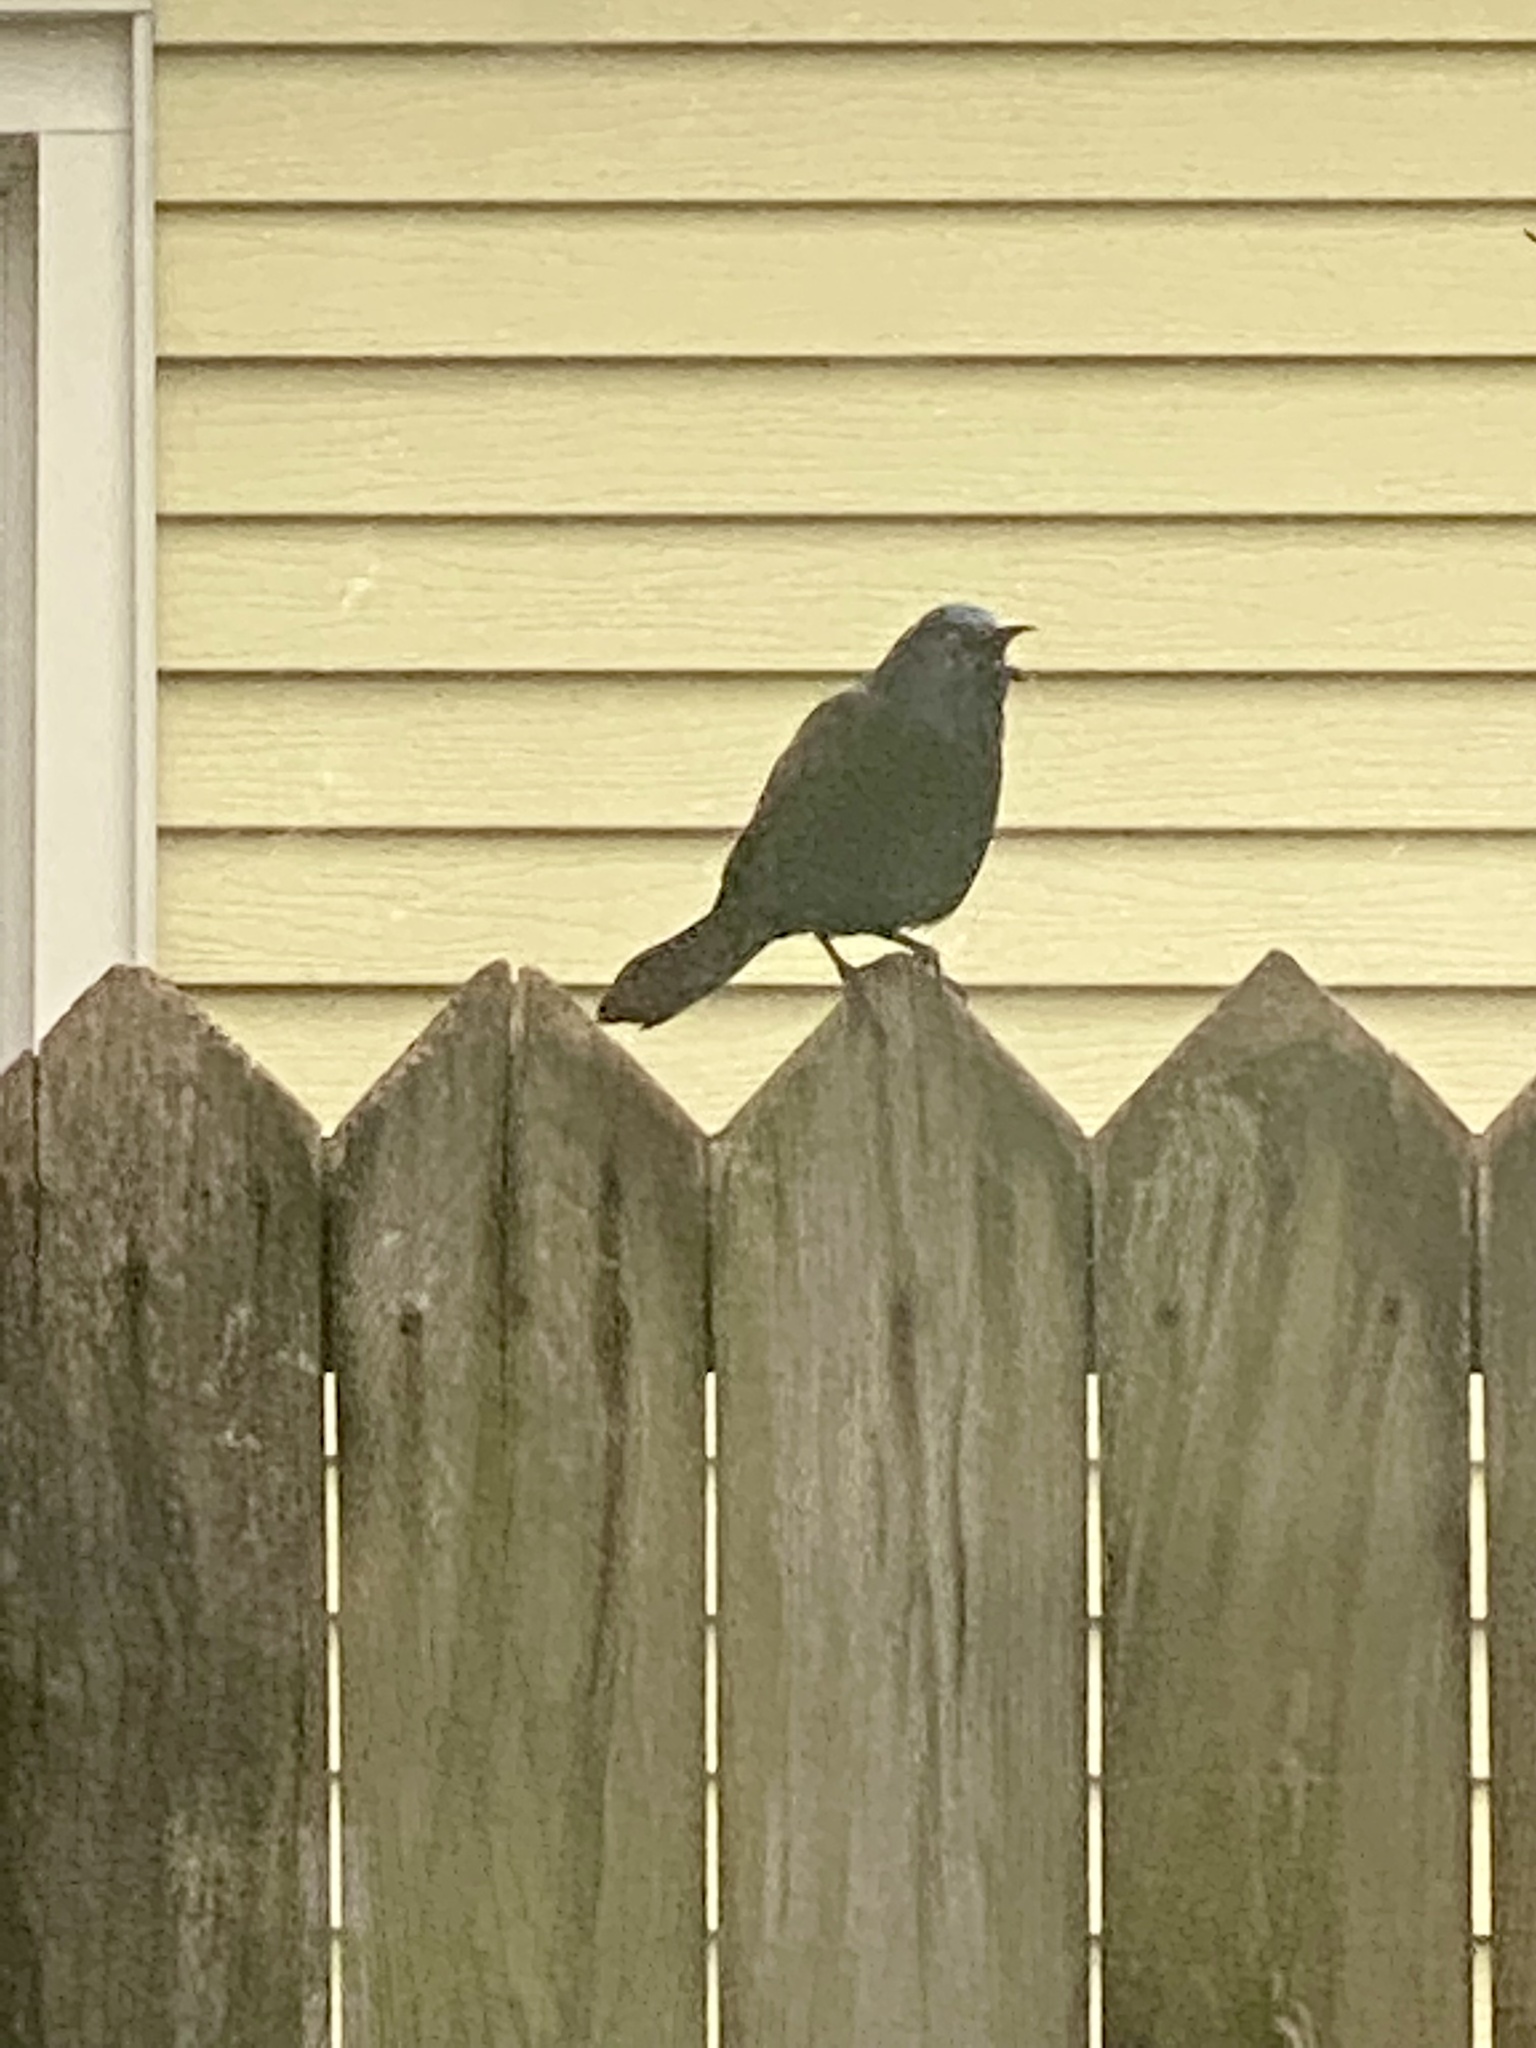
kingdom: Animalia
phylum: Chordata
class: Aves
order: Passeriformes
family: Icteridae
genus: Quiscalus
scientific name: Quiscalus quiscula
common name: Common grackle
